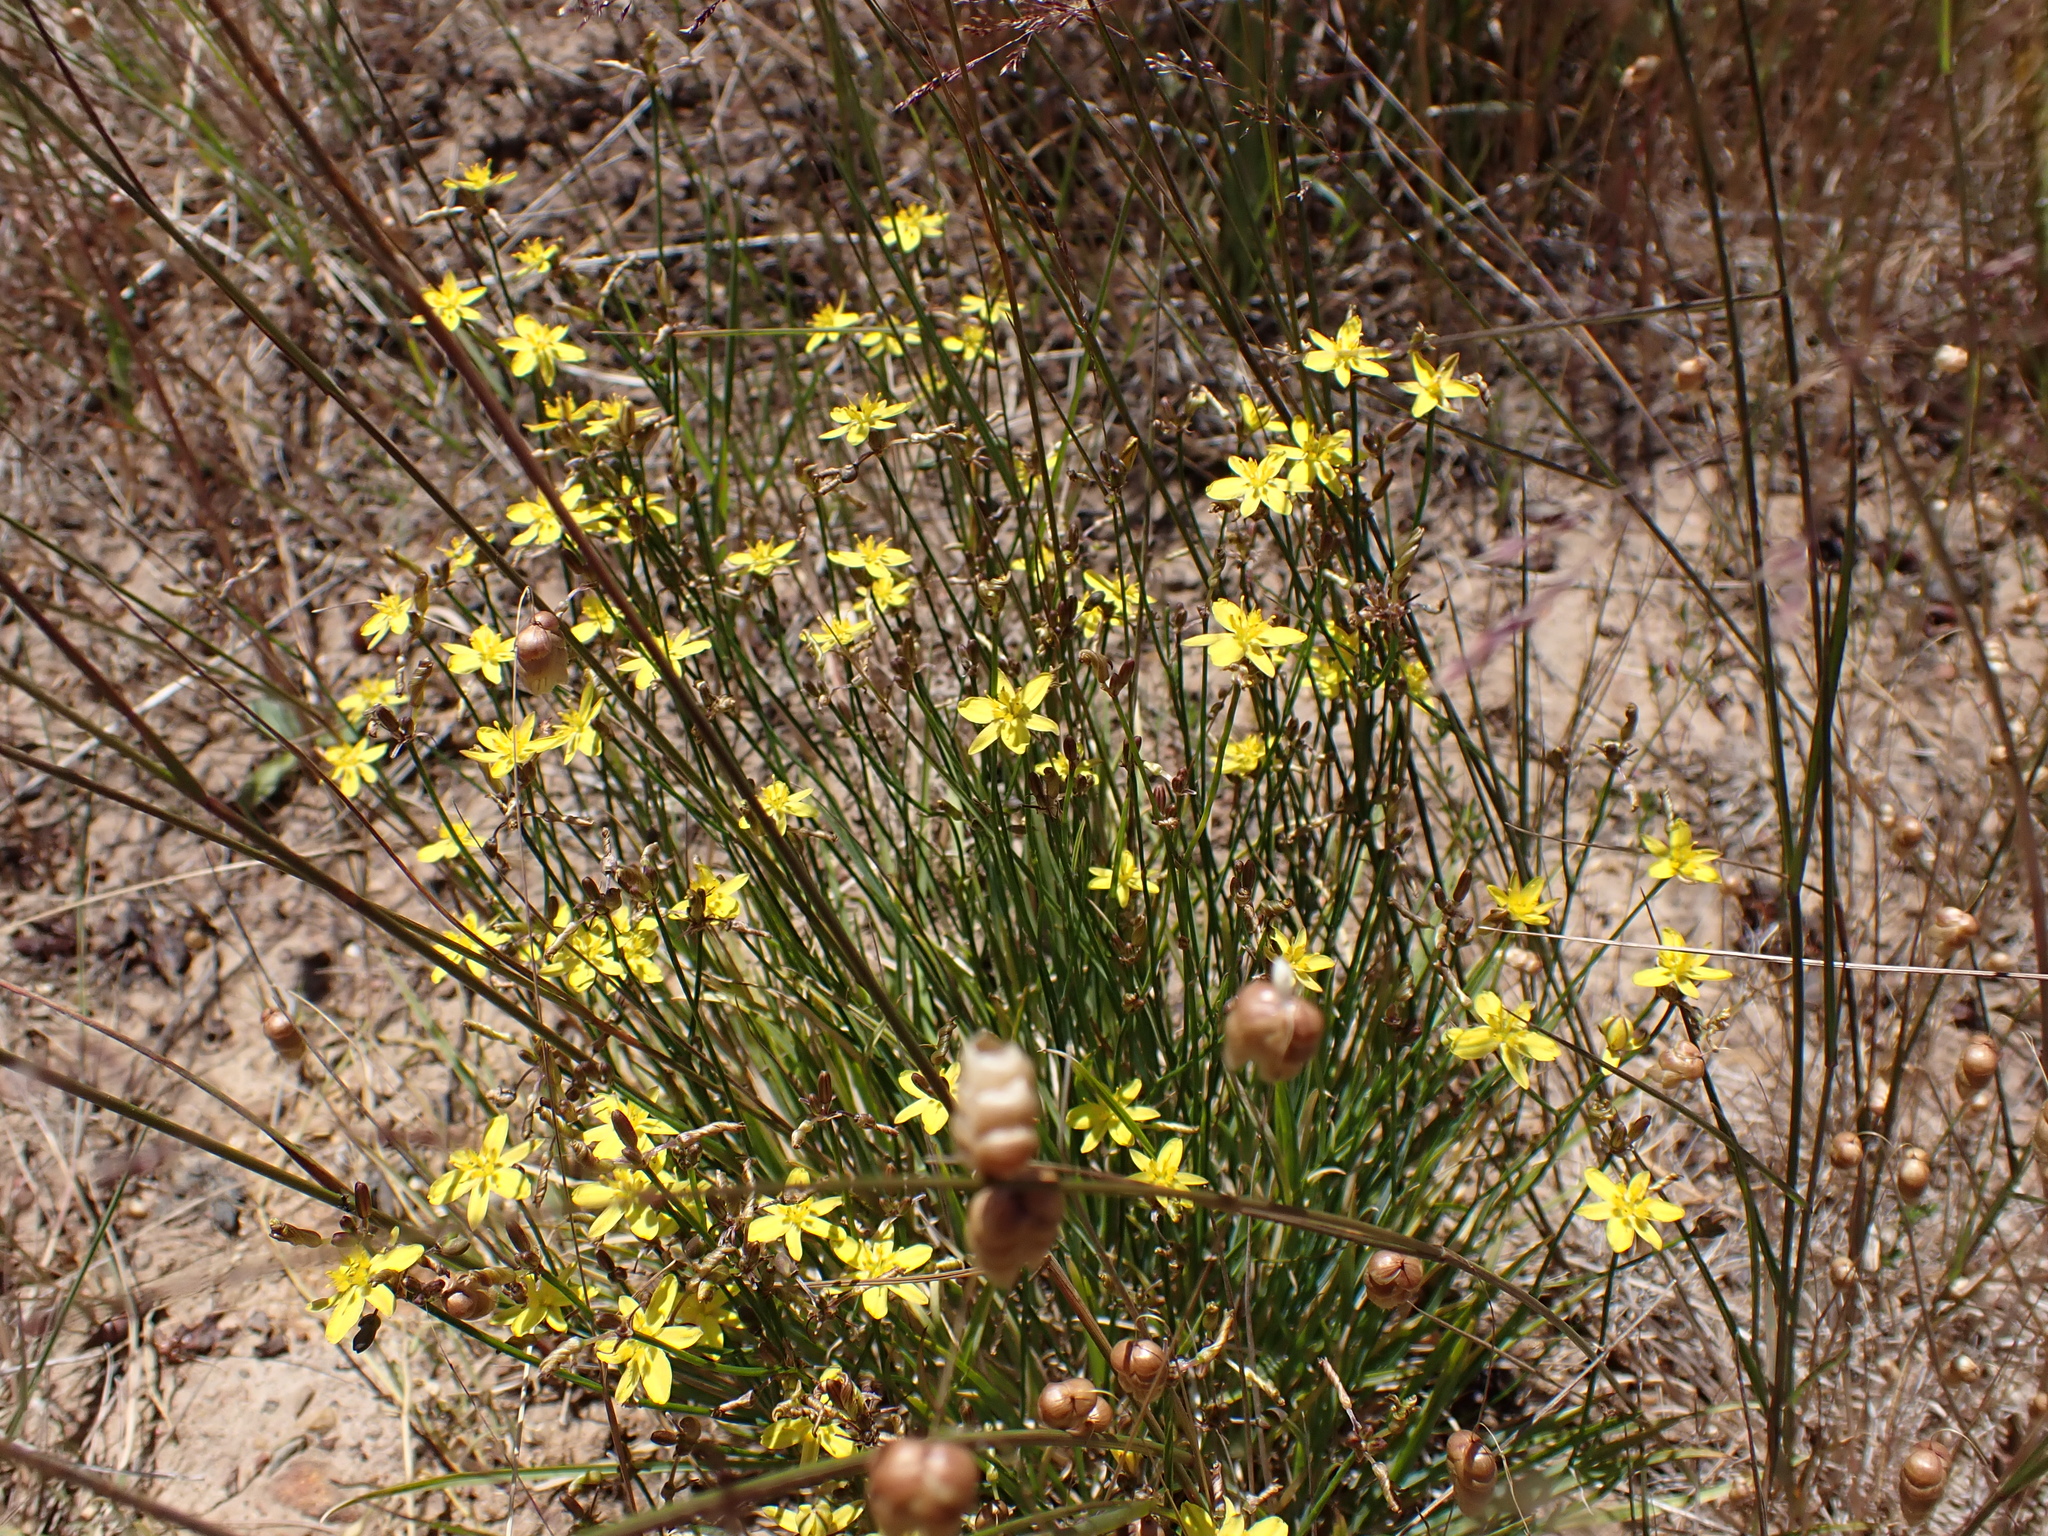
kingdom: Plantae
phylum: Tracheophyta
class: Liliopsida
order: Asparagales
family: Asphodelaceae
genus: Tricoryne
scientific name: Tricoryne elatior
